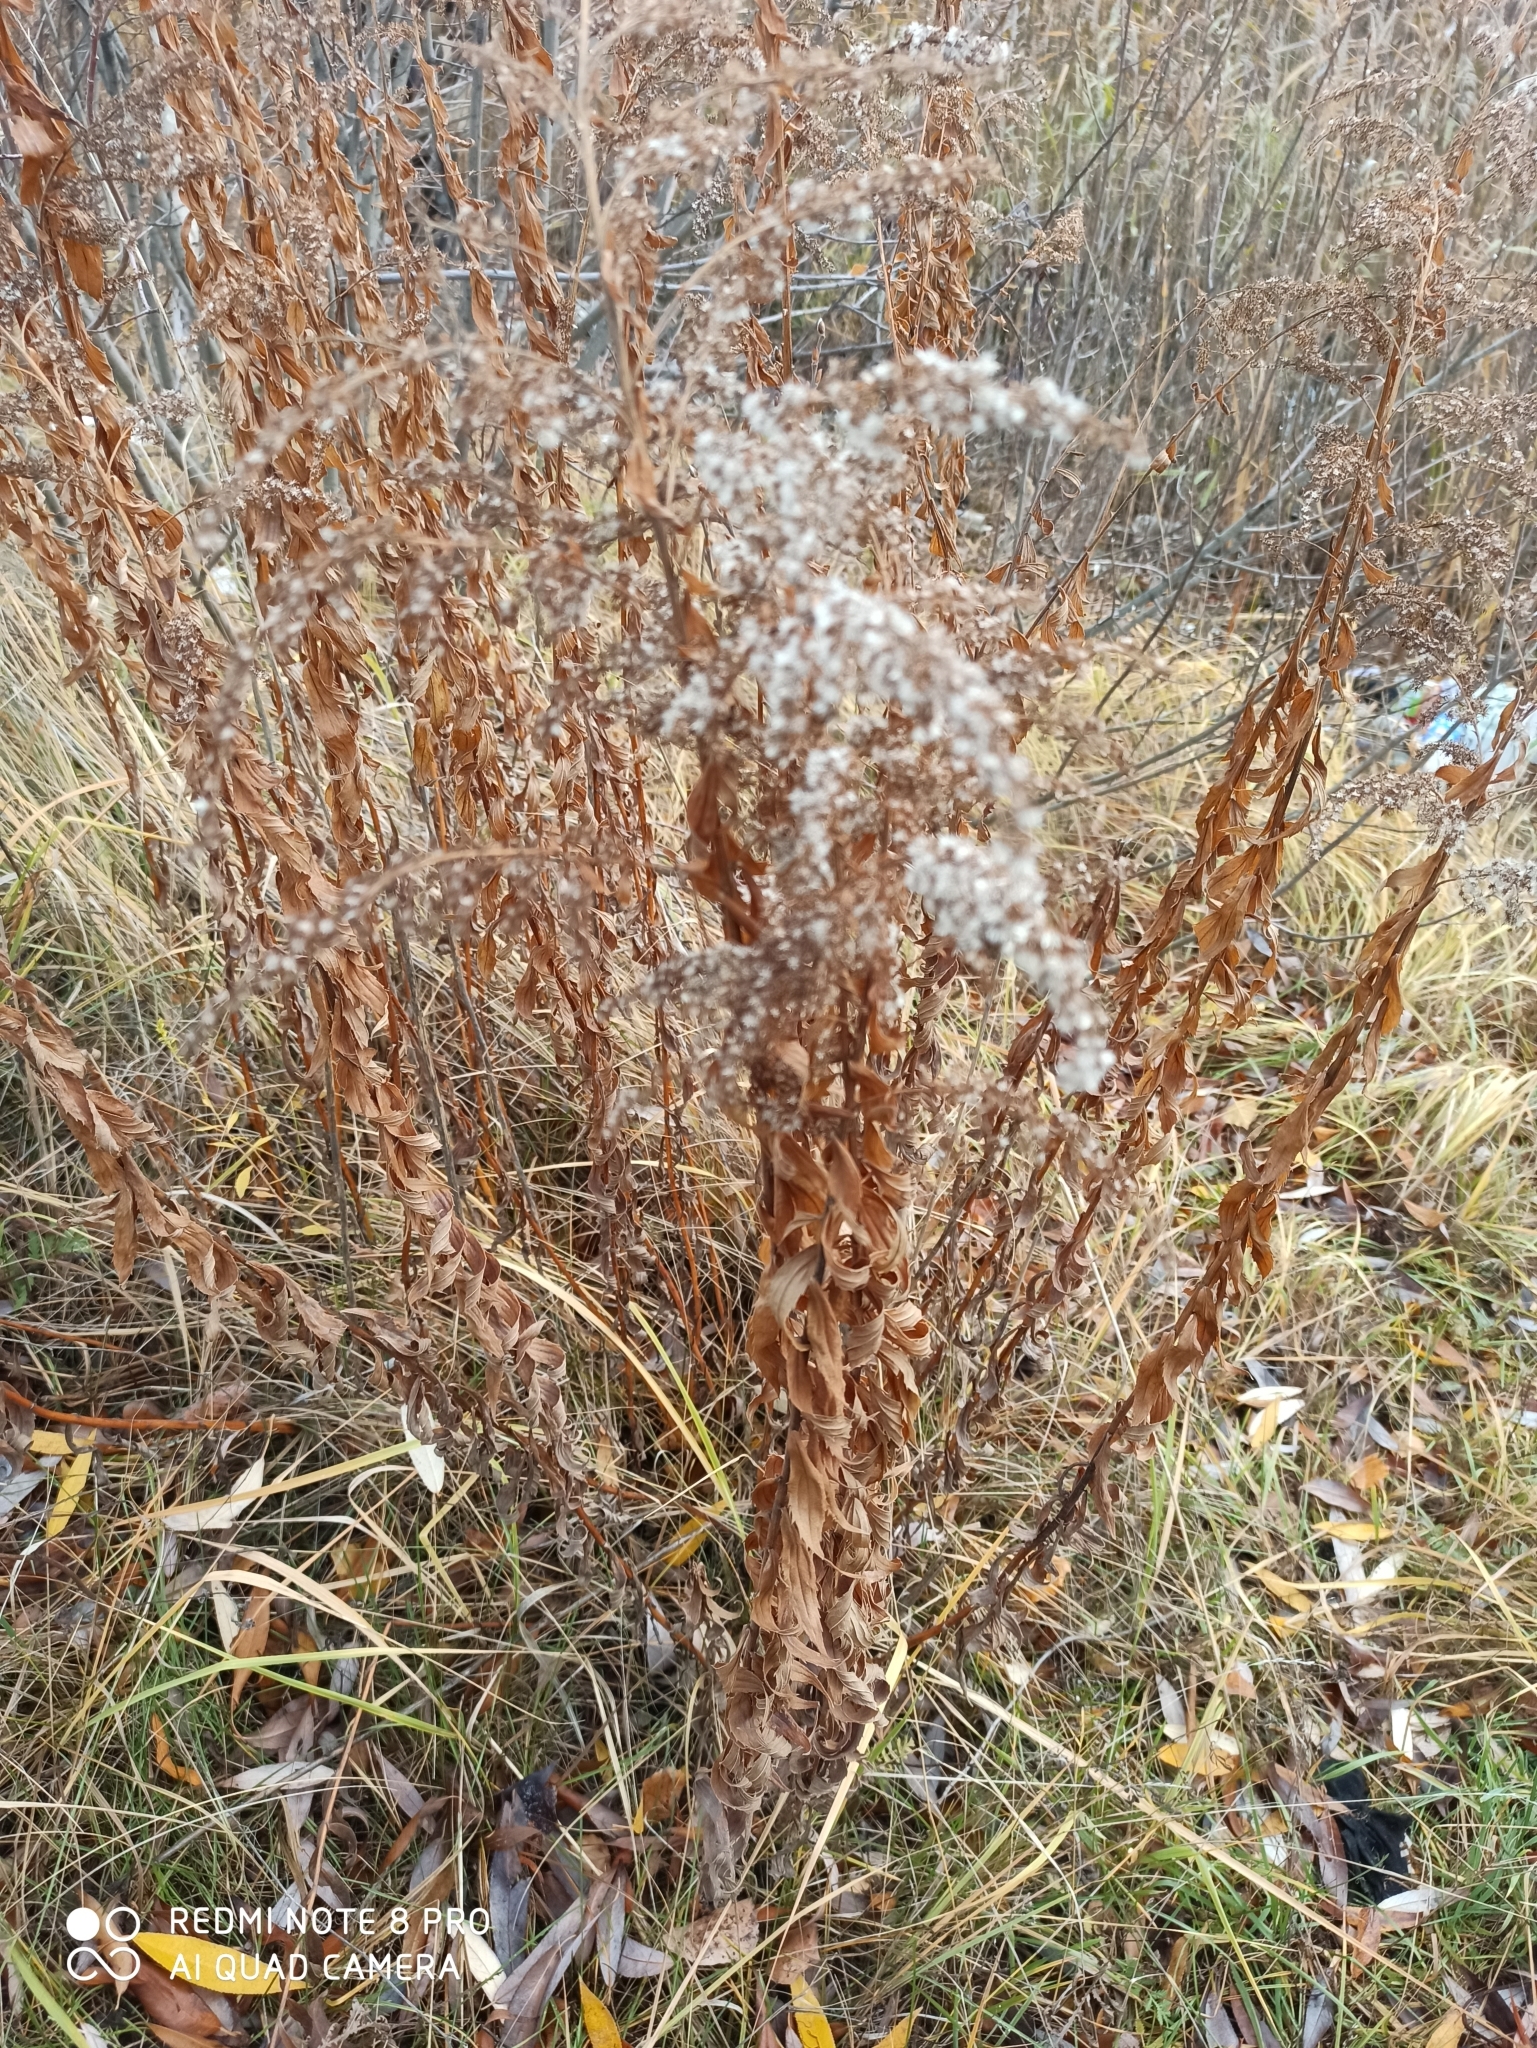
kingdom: Plantae
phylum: Tracheophyta
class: Magnoliopsida
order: Asterales
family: Asteraceae
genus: Solidago
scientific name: Solidago canadensis
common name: Canada goldenrod
